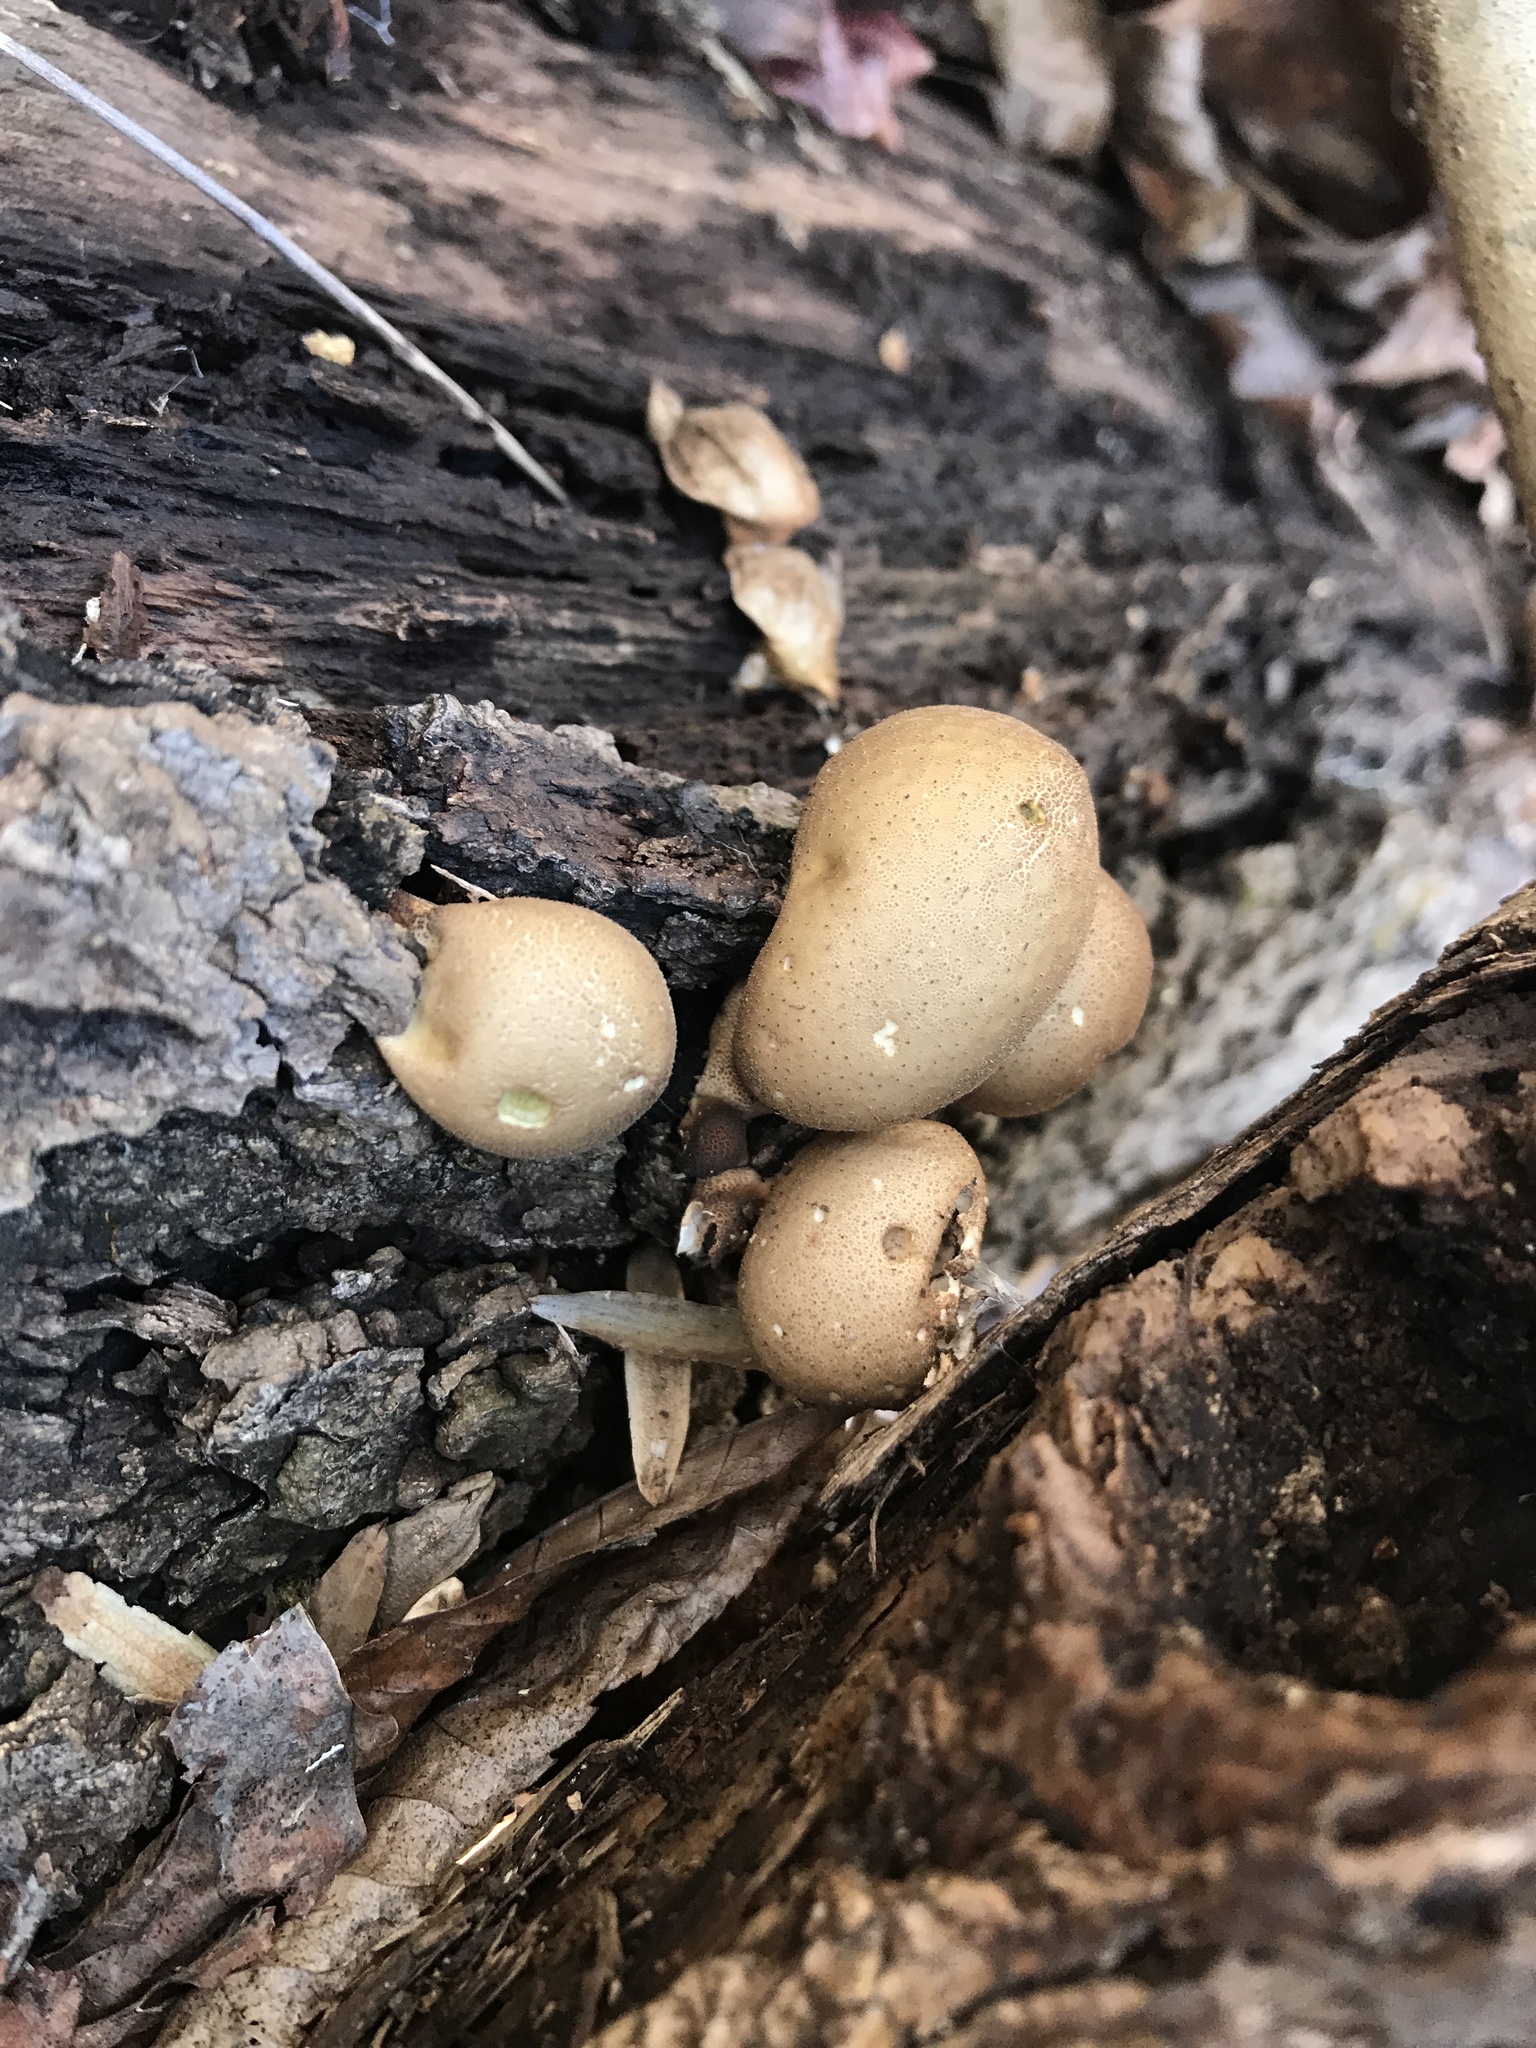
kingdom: Fungi
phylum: Basidiomycota
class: Agaricomycetes
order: Agaricales
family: Lycoperdaceae
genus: Apioperdon
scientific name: Apioperdon pyriforme
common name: Pear-shaped puffball
